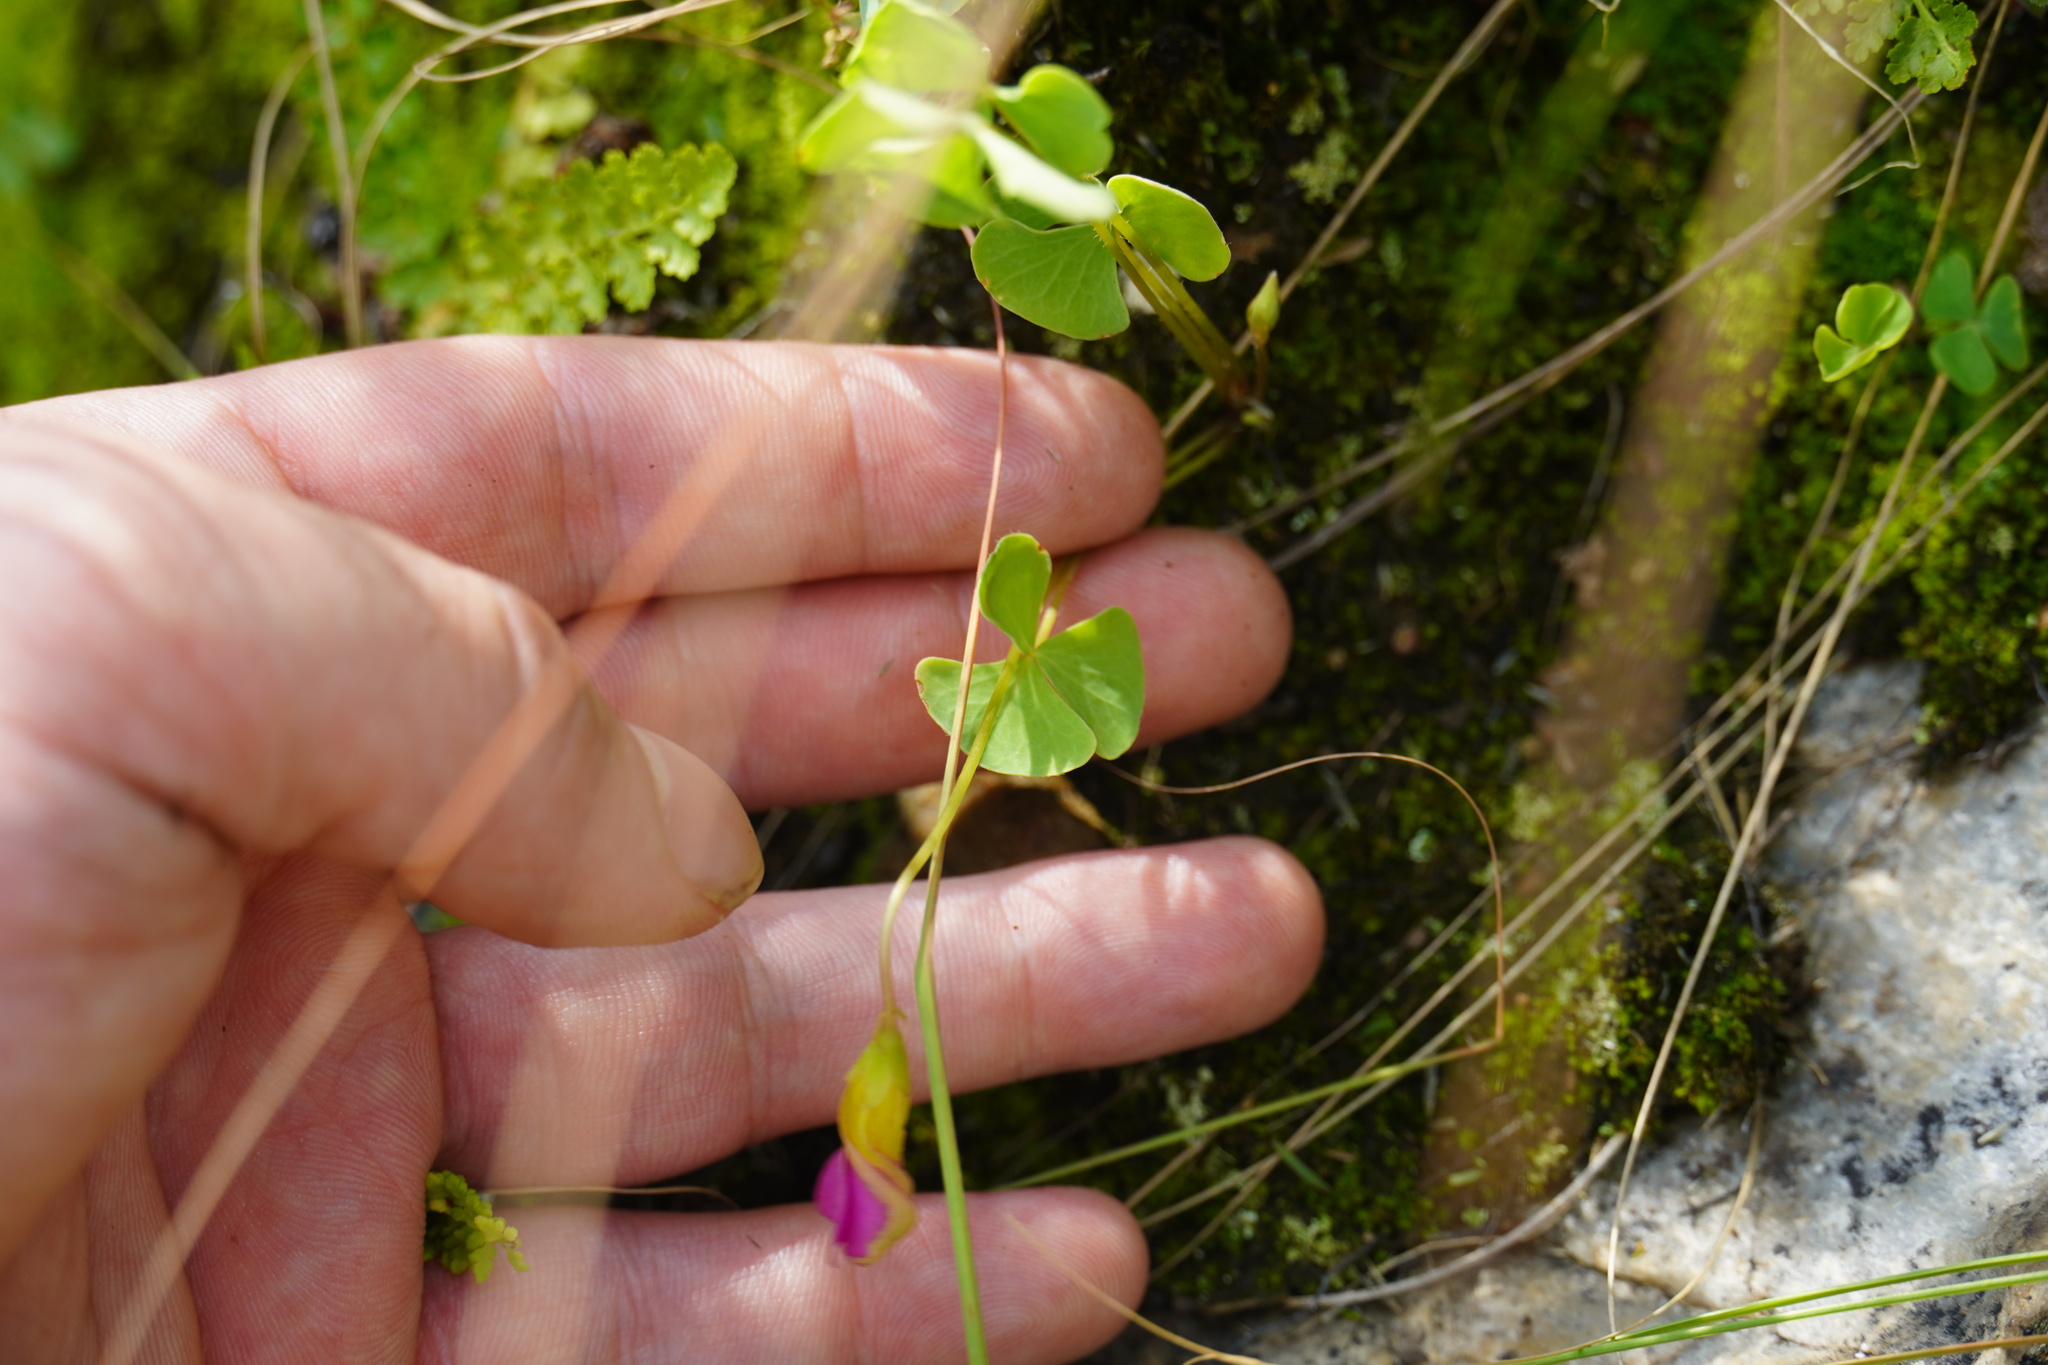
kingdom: Plantae
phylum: Tracheophyta
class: Magnoliopsida
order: Oxalidales
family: Oxalidaceae
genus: Oxalis
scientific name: Oxalis obliquifolia
